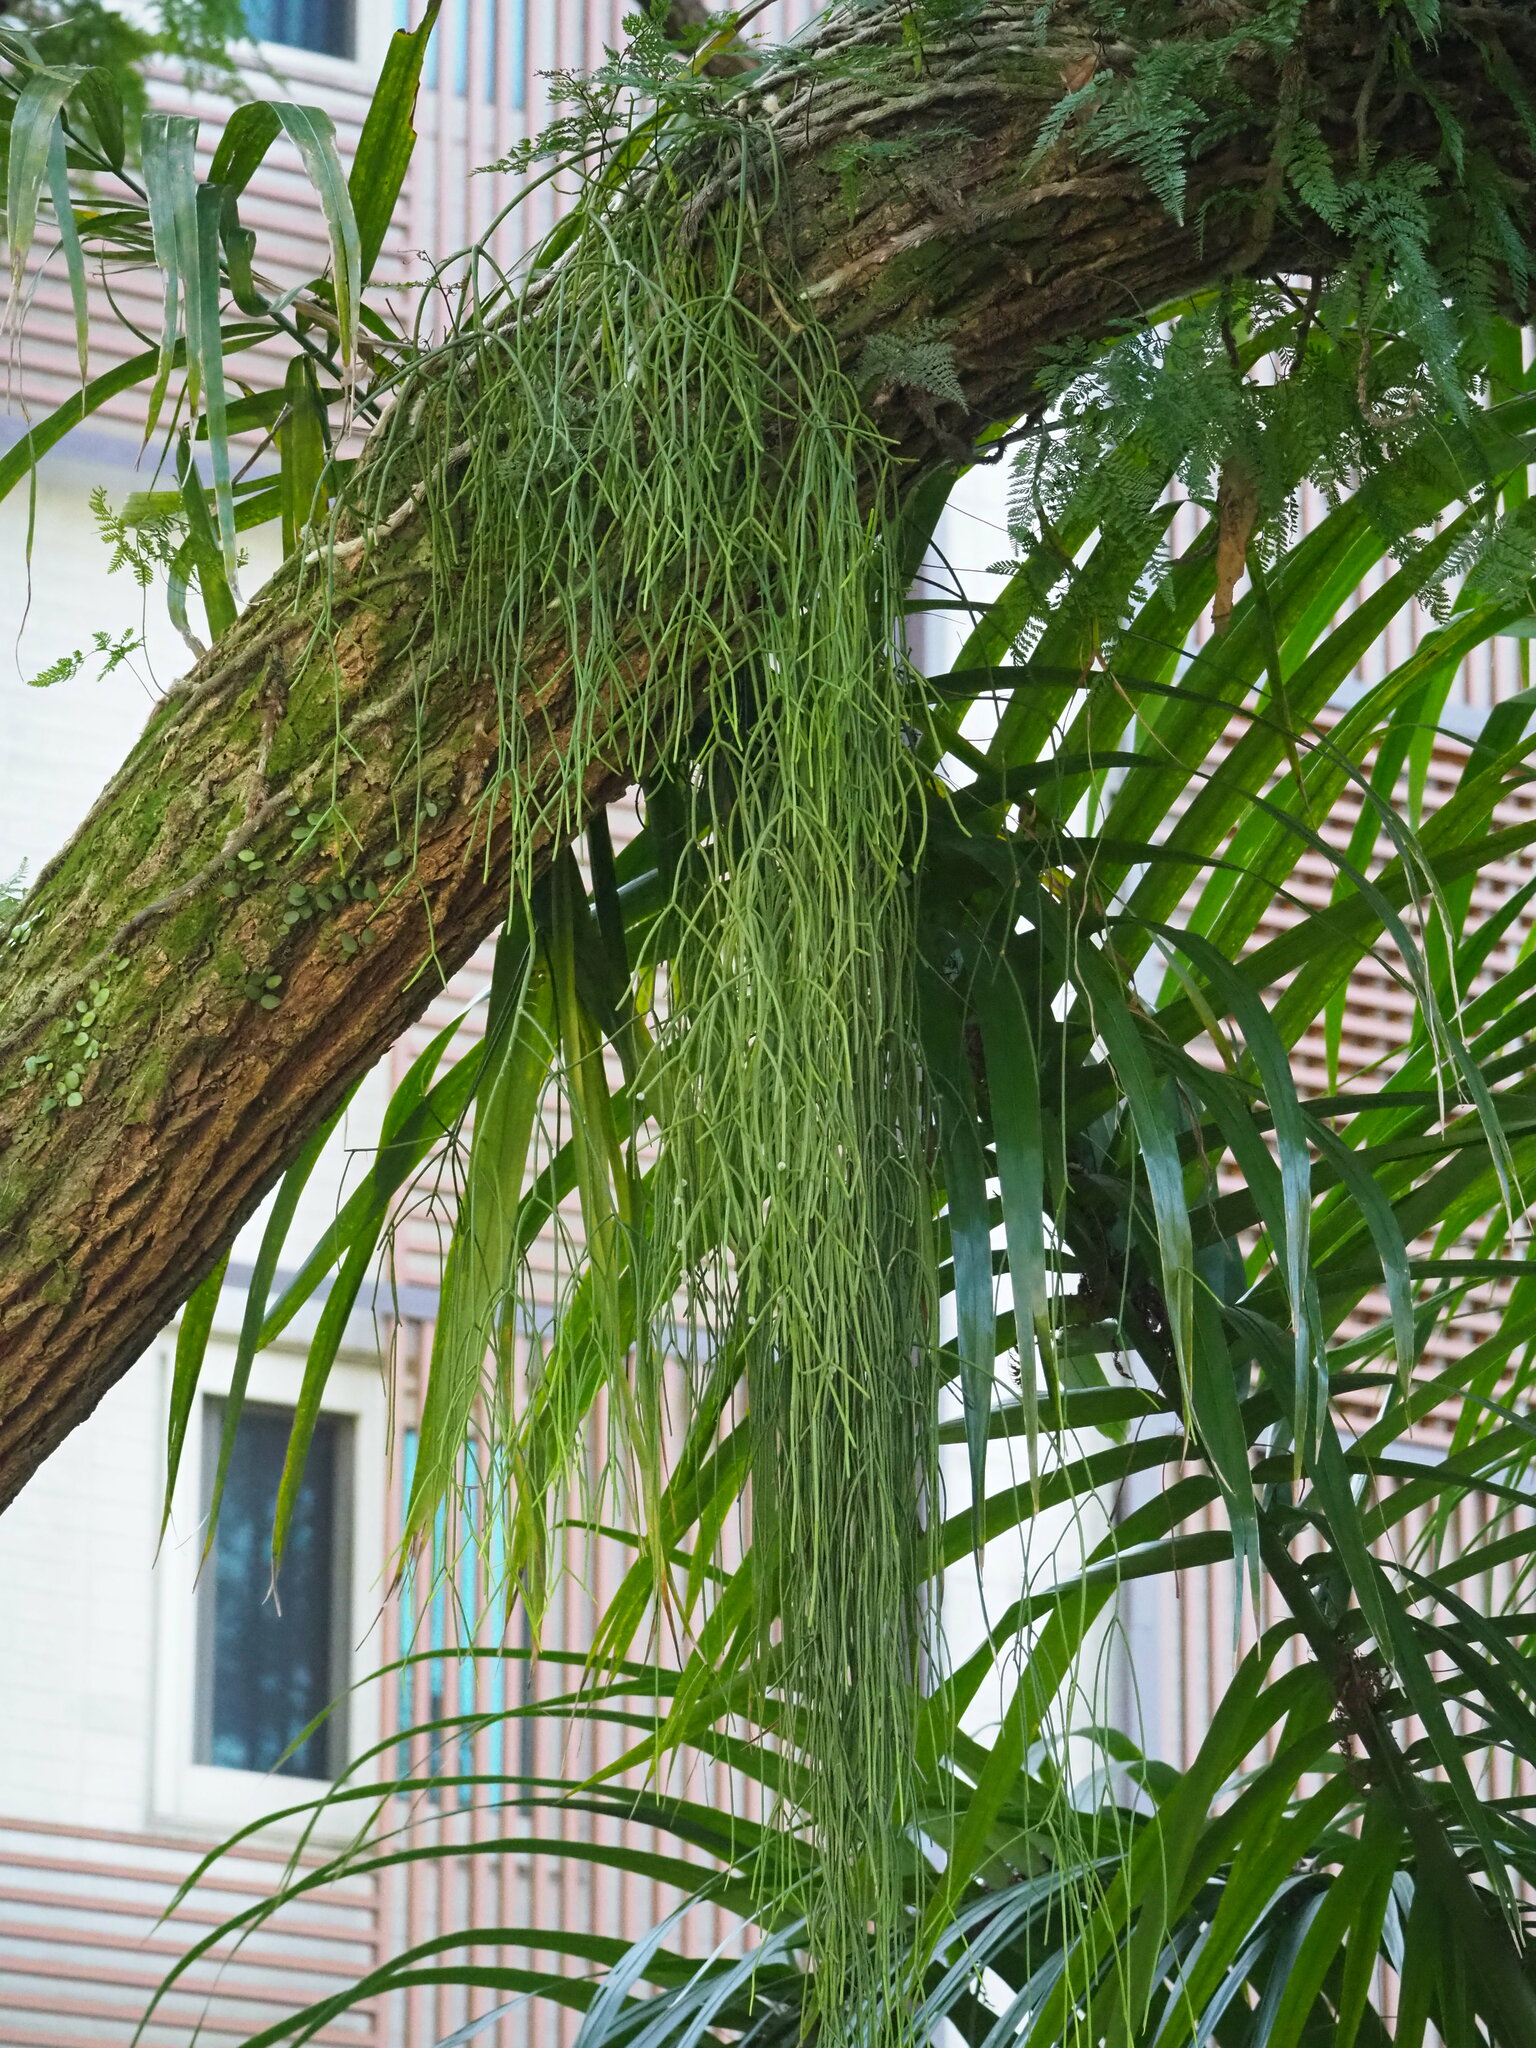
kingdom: Plantae
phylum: Tracheophyta
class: Magnoliopsida
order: Caryophyllales
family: Cactaceae
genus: Rhipsalis
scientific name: Rhipsalis baccifera
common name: Mistletoe cactus
